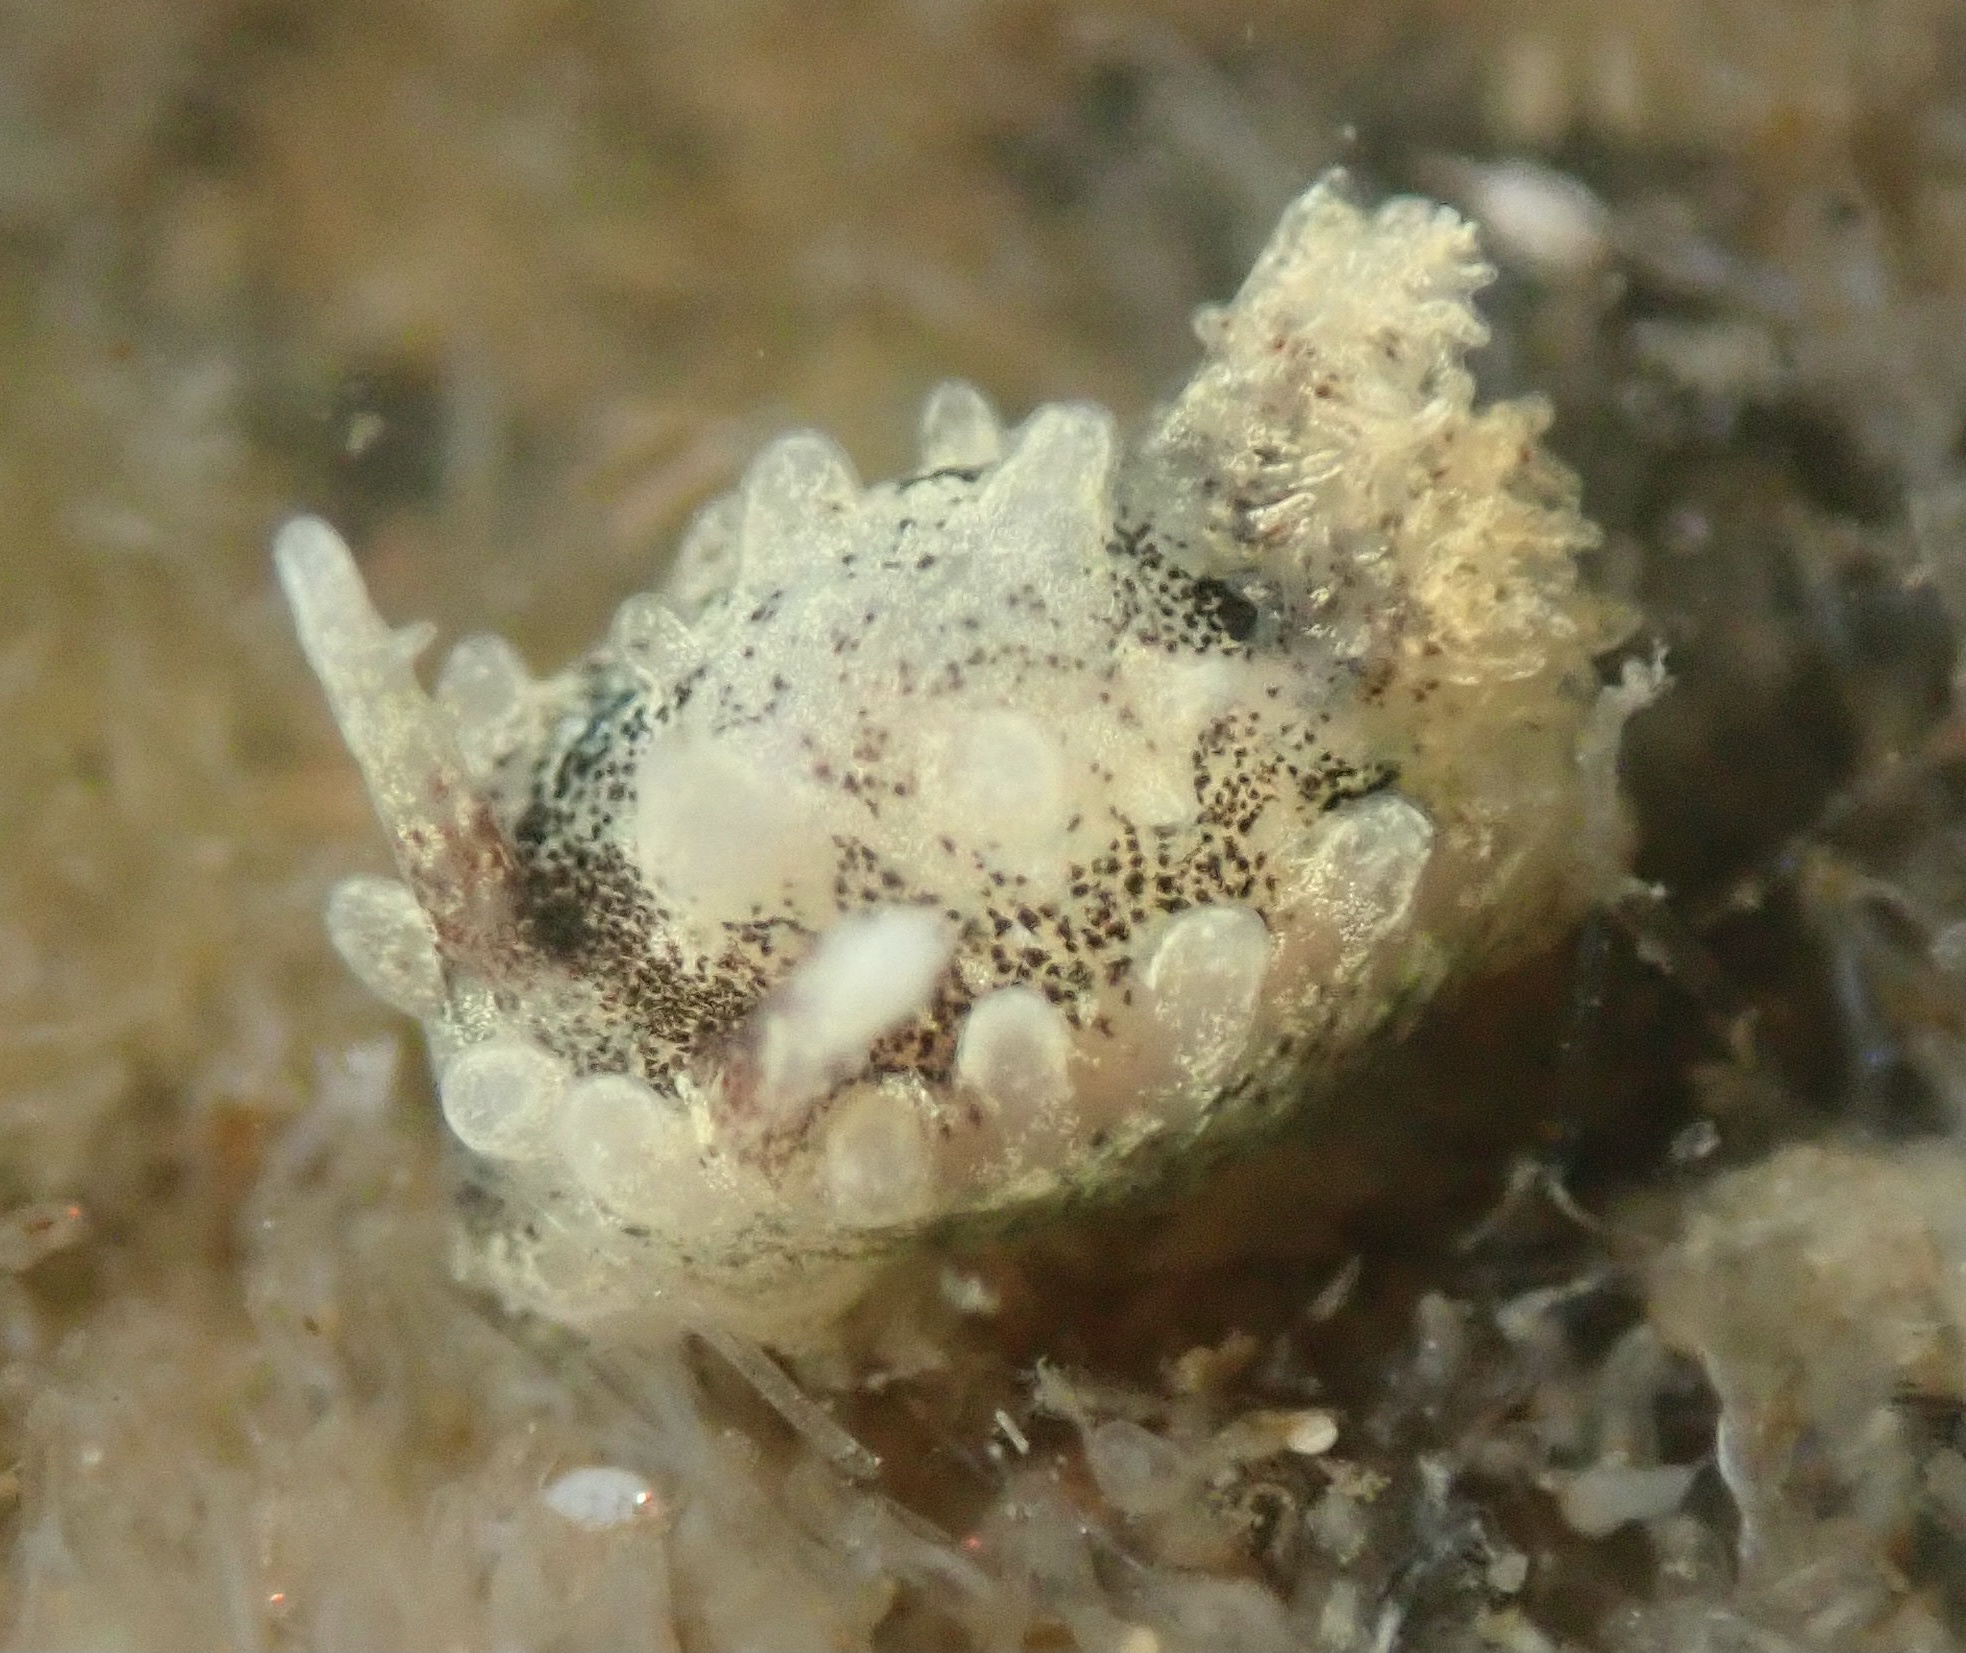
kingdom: Animalia
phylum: Mollusca
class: Gastropoda
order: Nudibranchia
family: Goniodorididae
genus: Okenia
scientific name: Okenia
